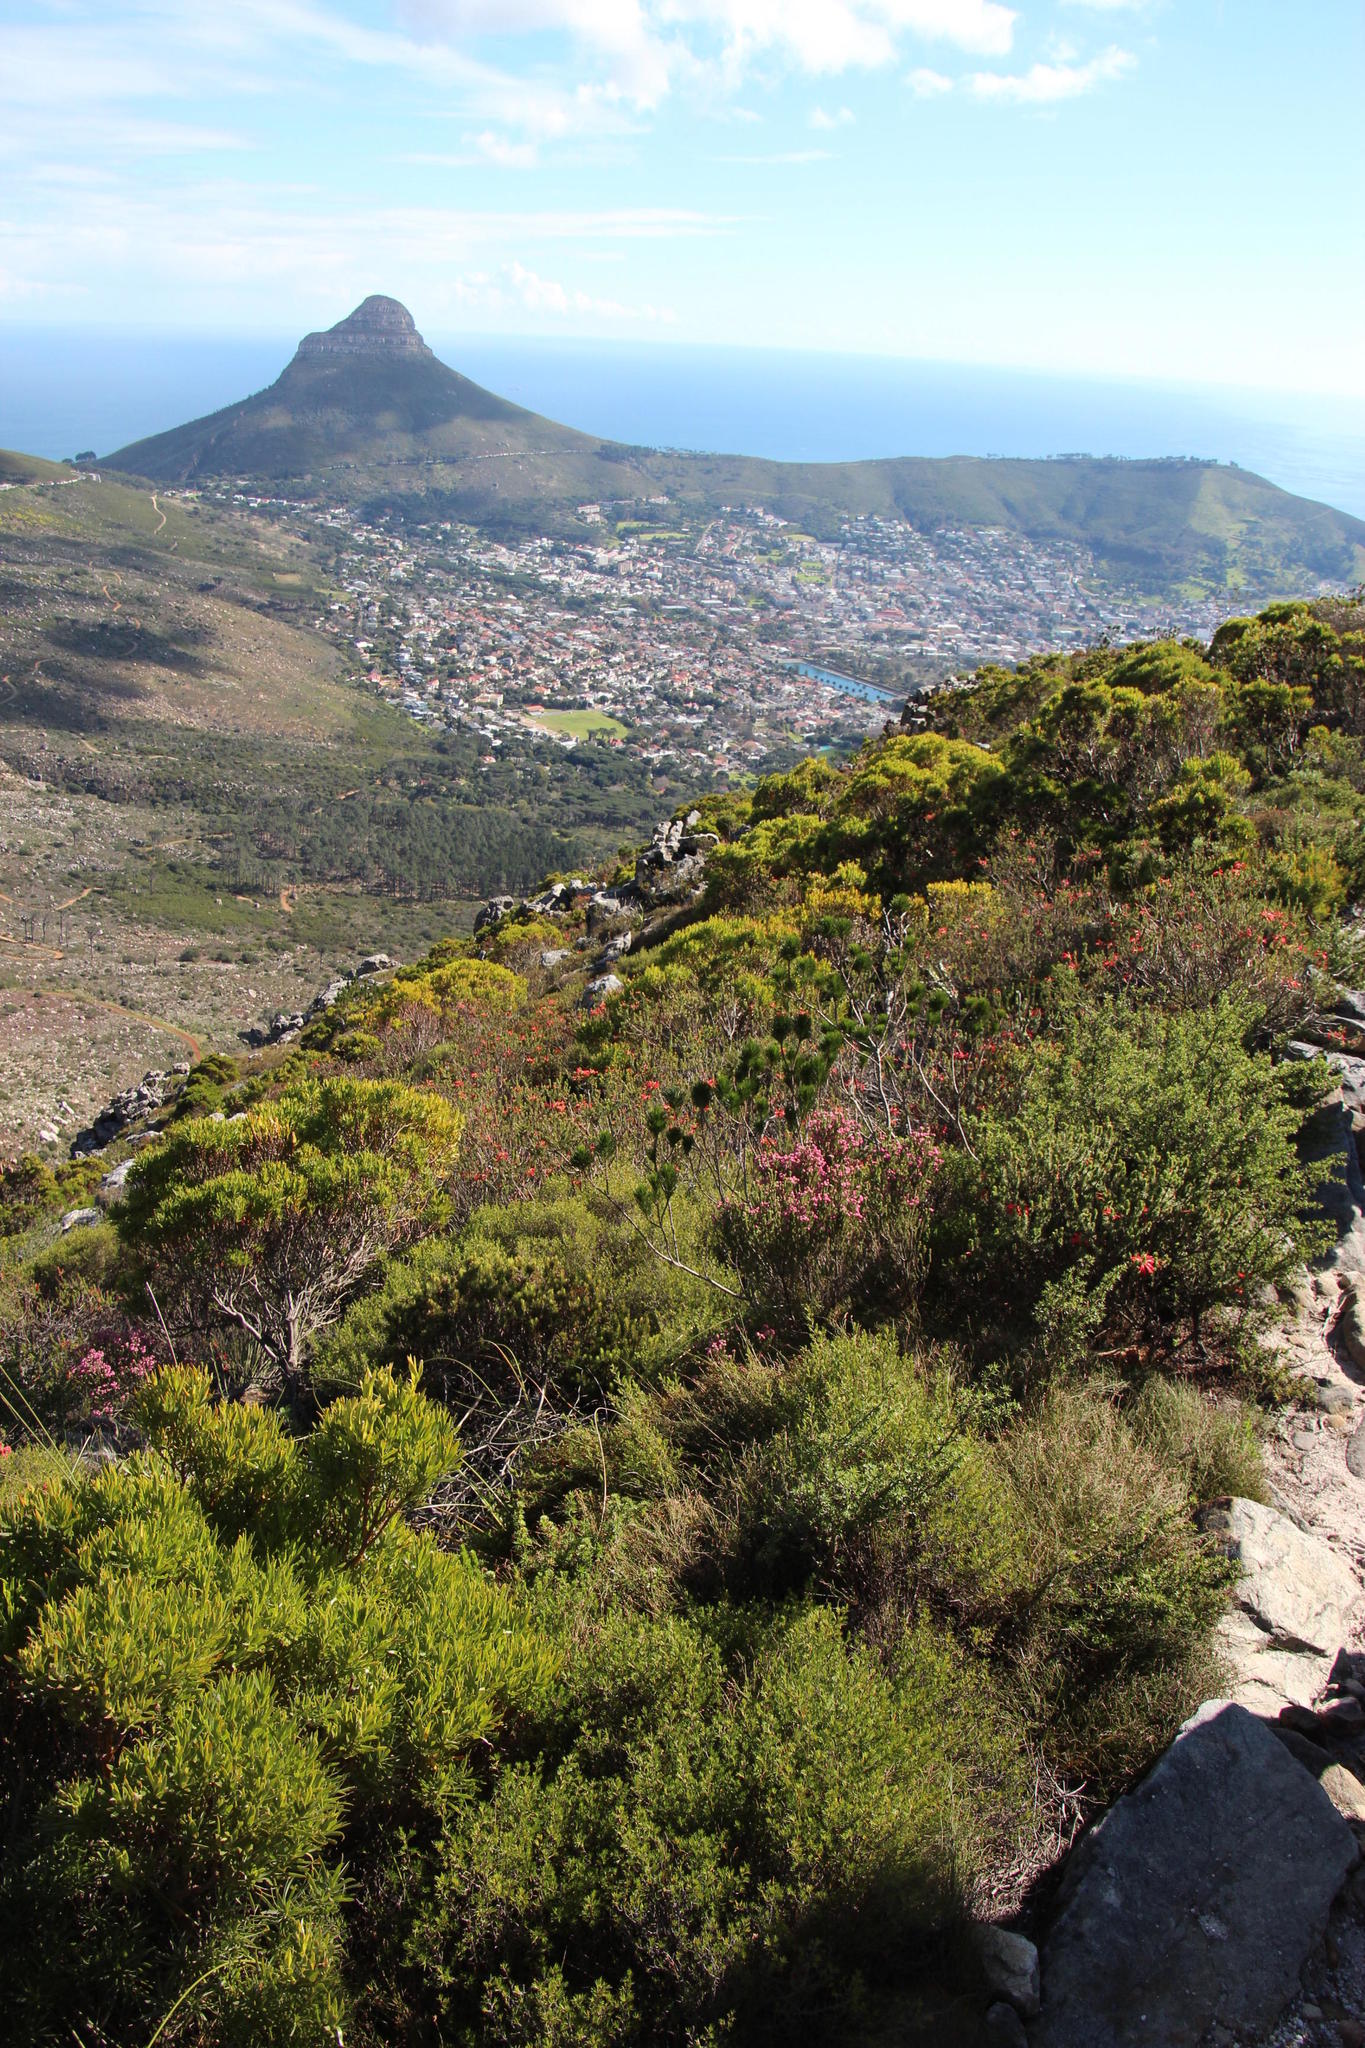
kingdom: Plantae
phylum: Tracheophyta
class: Magnoliopsida
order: Ericales
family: Ericaceae
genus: Erica
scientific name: Erica abietina
